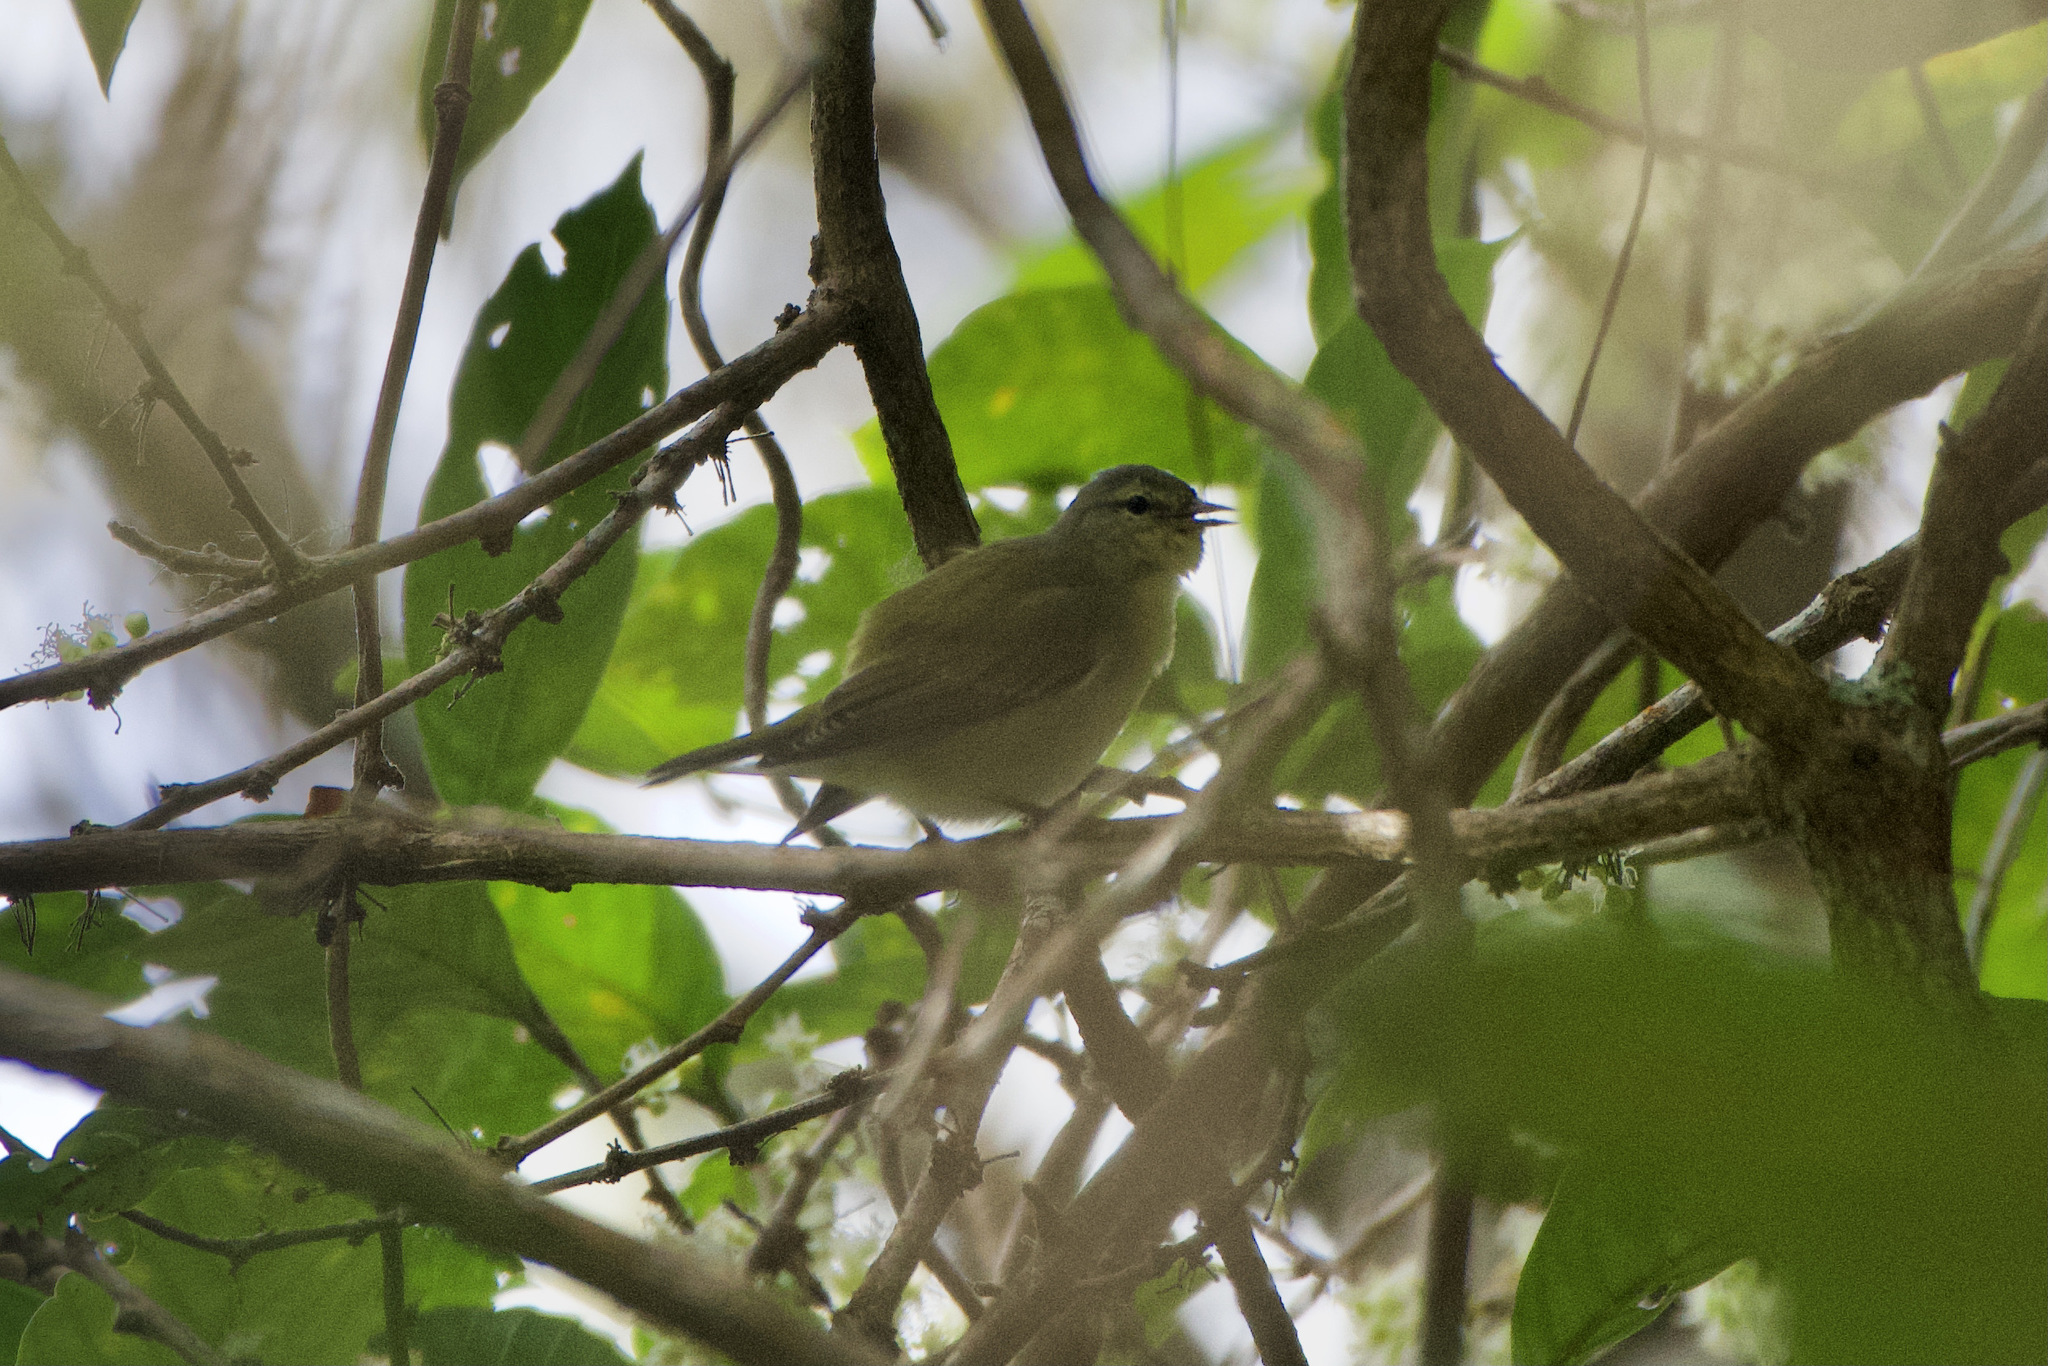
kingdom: Animalia
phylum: Chordata
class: Aves
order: Passeriformes
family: Parulidae
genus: Leiothlypis
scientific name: Leiothlypis peregrina
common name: Tennessee warbler
